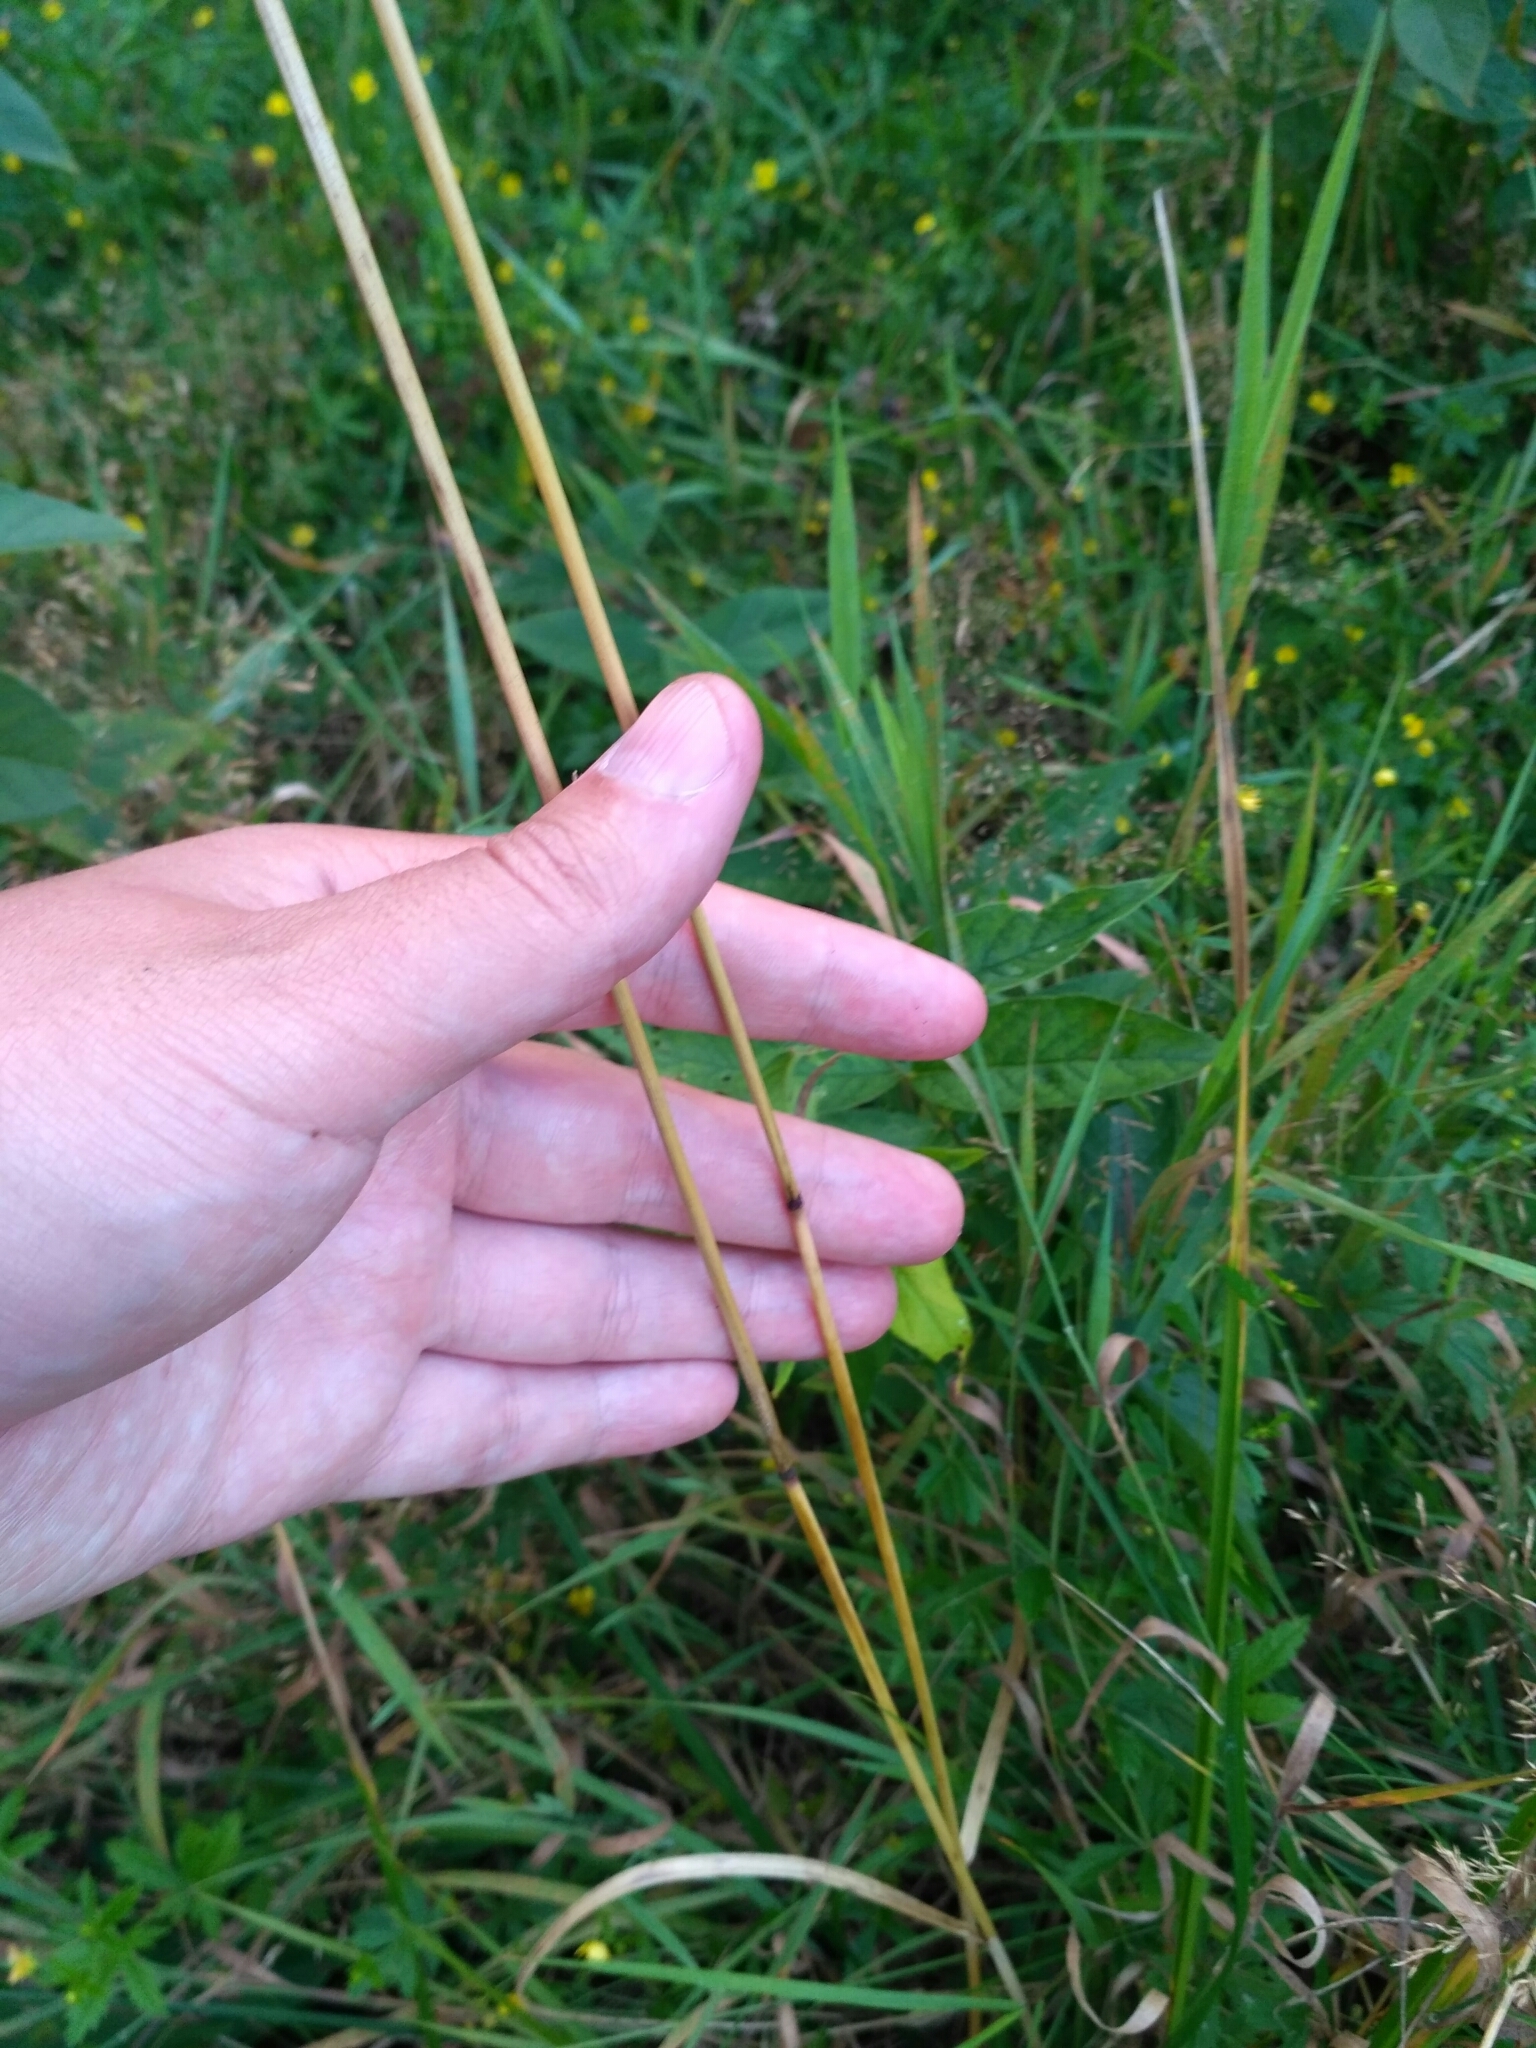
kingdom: Plantae
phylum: Tracheophyta
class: Liliopsida
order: Poales
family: Poaceae
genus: Deschampsia
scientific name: Deschampsia cespitosa
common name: Tufted hair-grass
